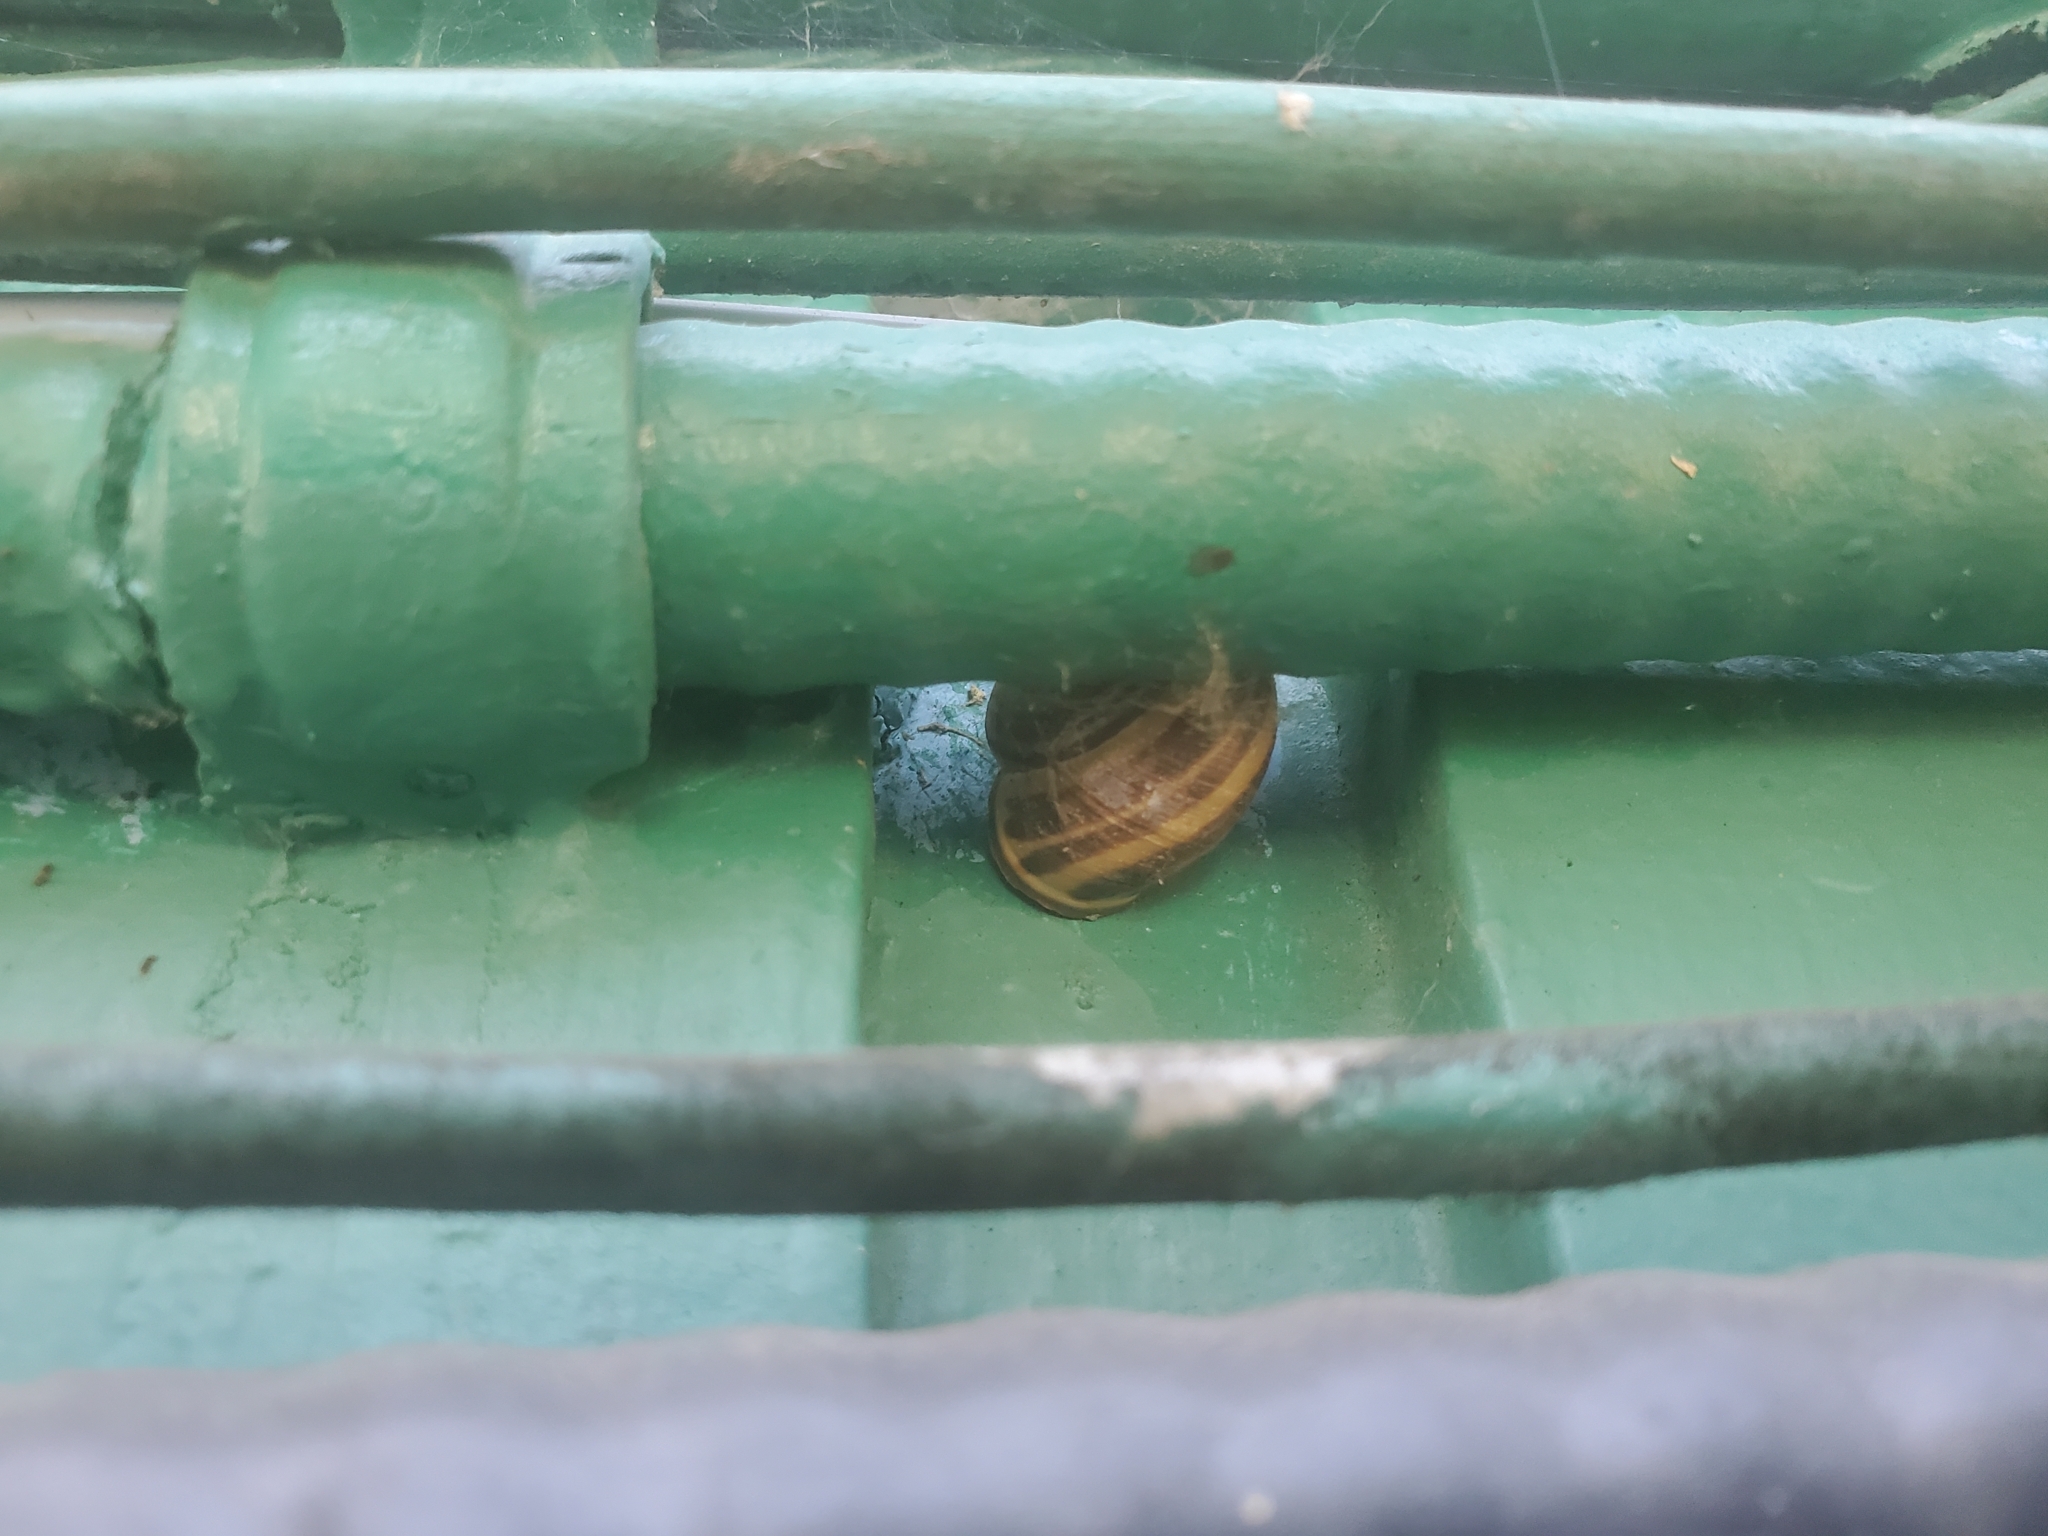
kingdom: Animalia
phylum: Mollusca
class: Gastropoda
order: Stylommatophora
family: Helicidae
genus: Cepaea
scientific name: Cepaea nemoralis
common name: Grovesnail
